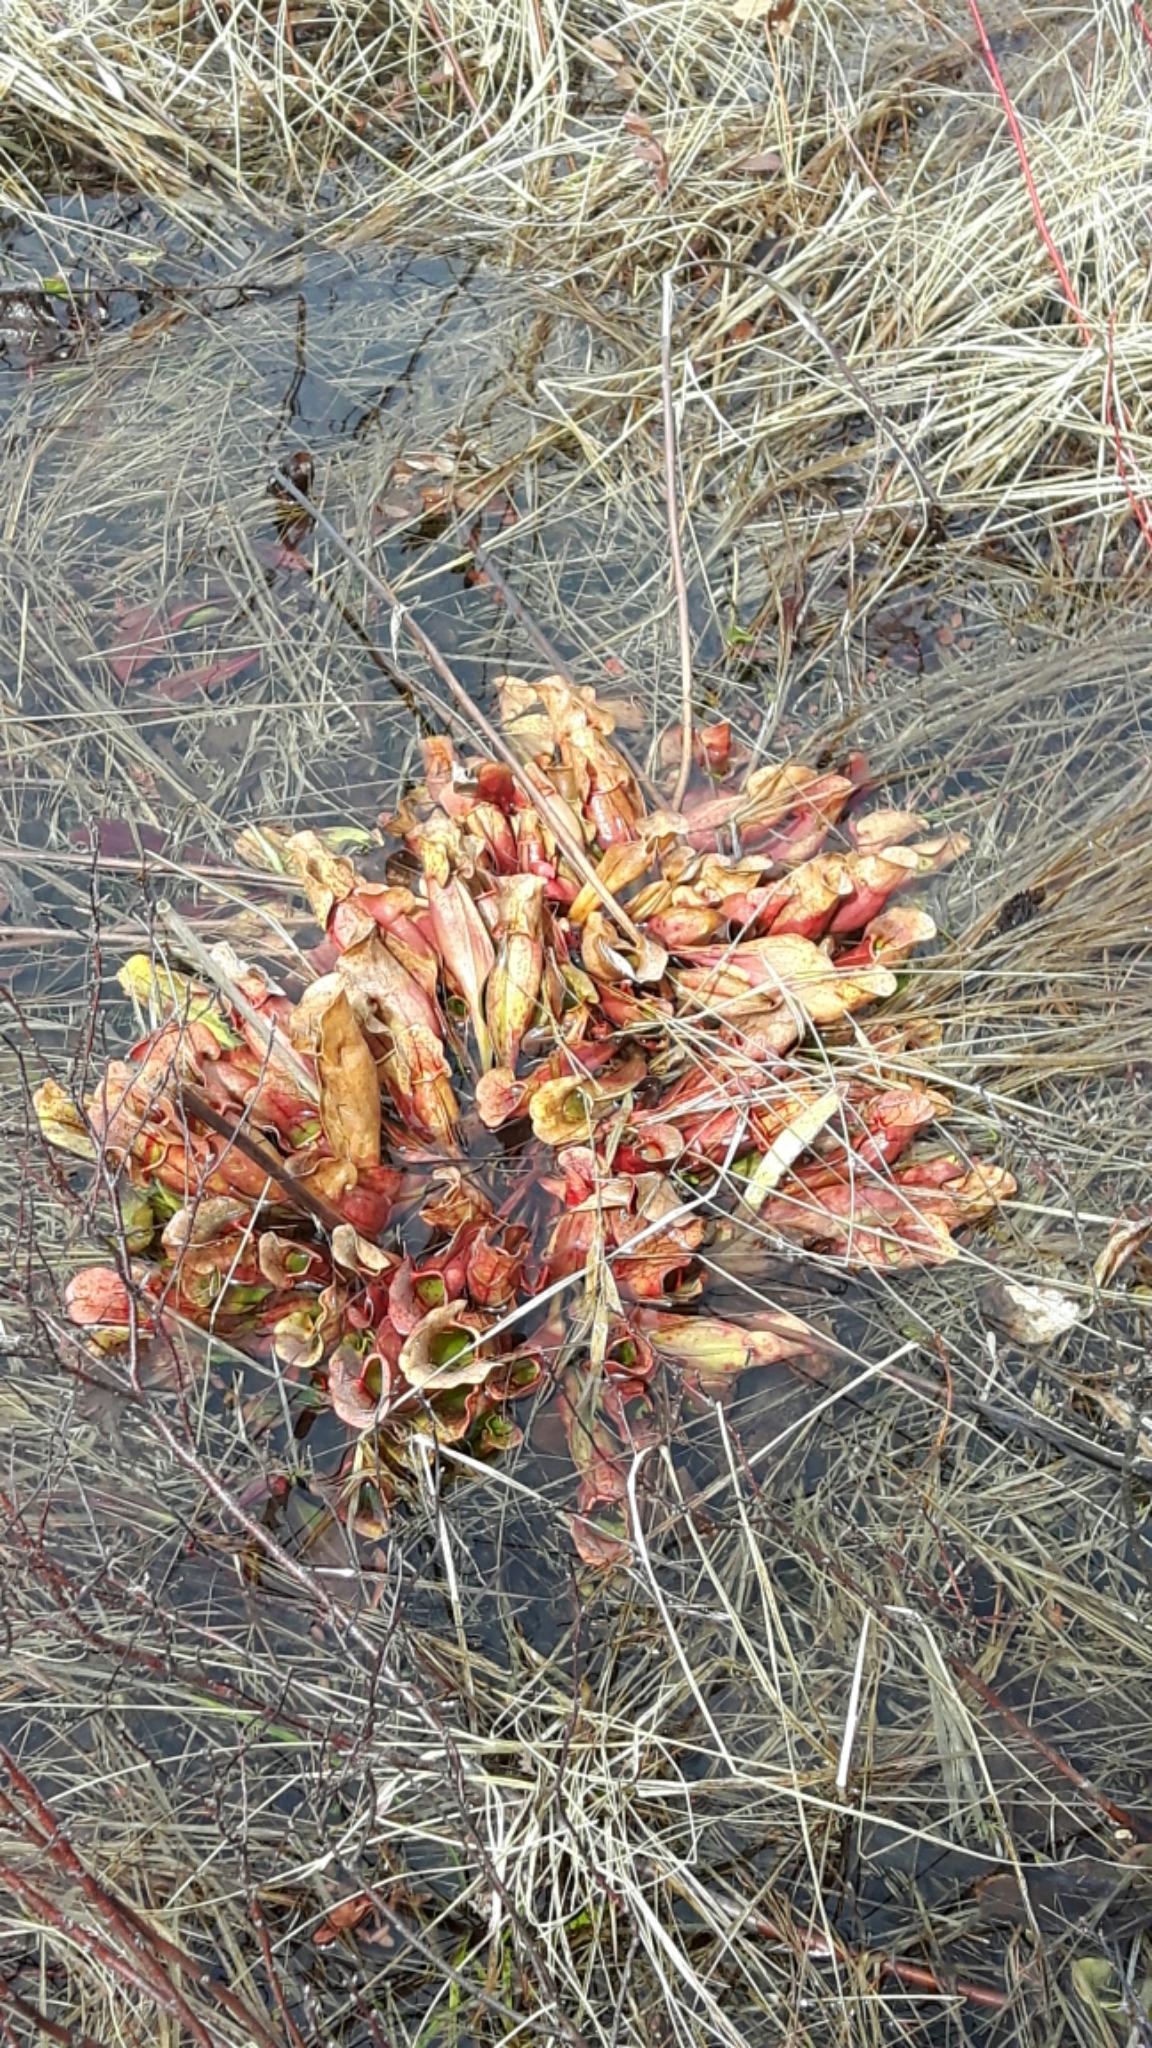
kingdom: Plantae
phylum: Tracheophyta
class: Magnoliopsida
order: Ericales
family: Sarraceniaceae
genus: Sarracenia
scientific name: Sarracenia purpurea
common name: Pitcherplant
